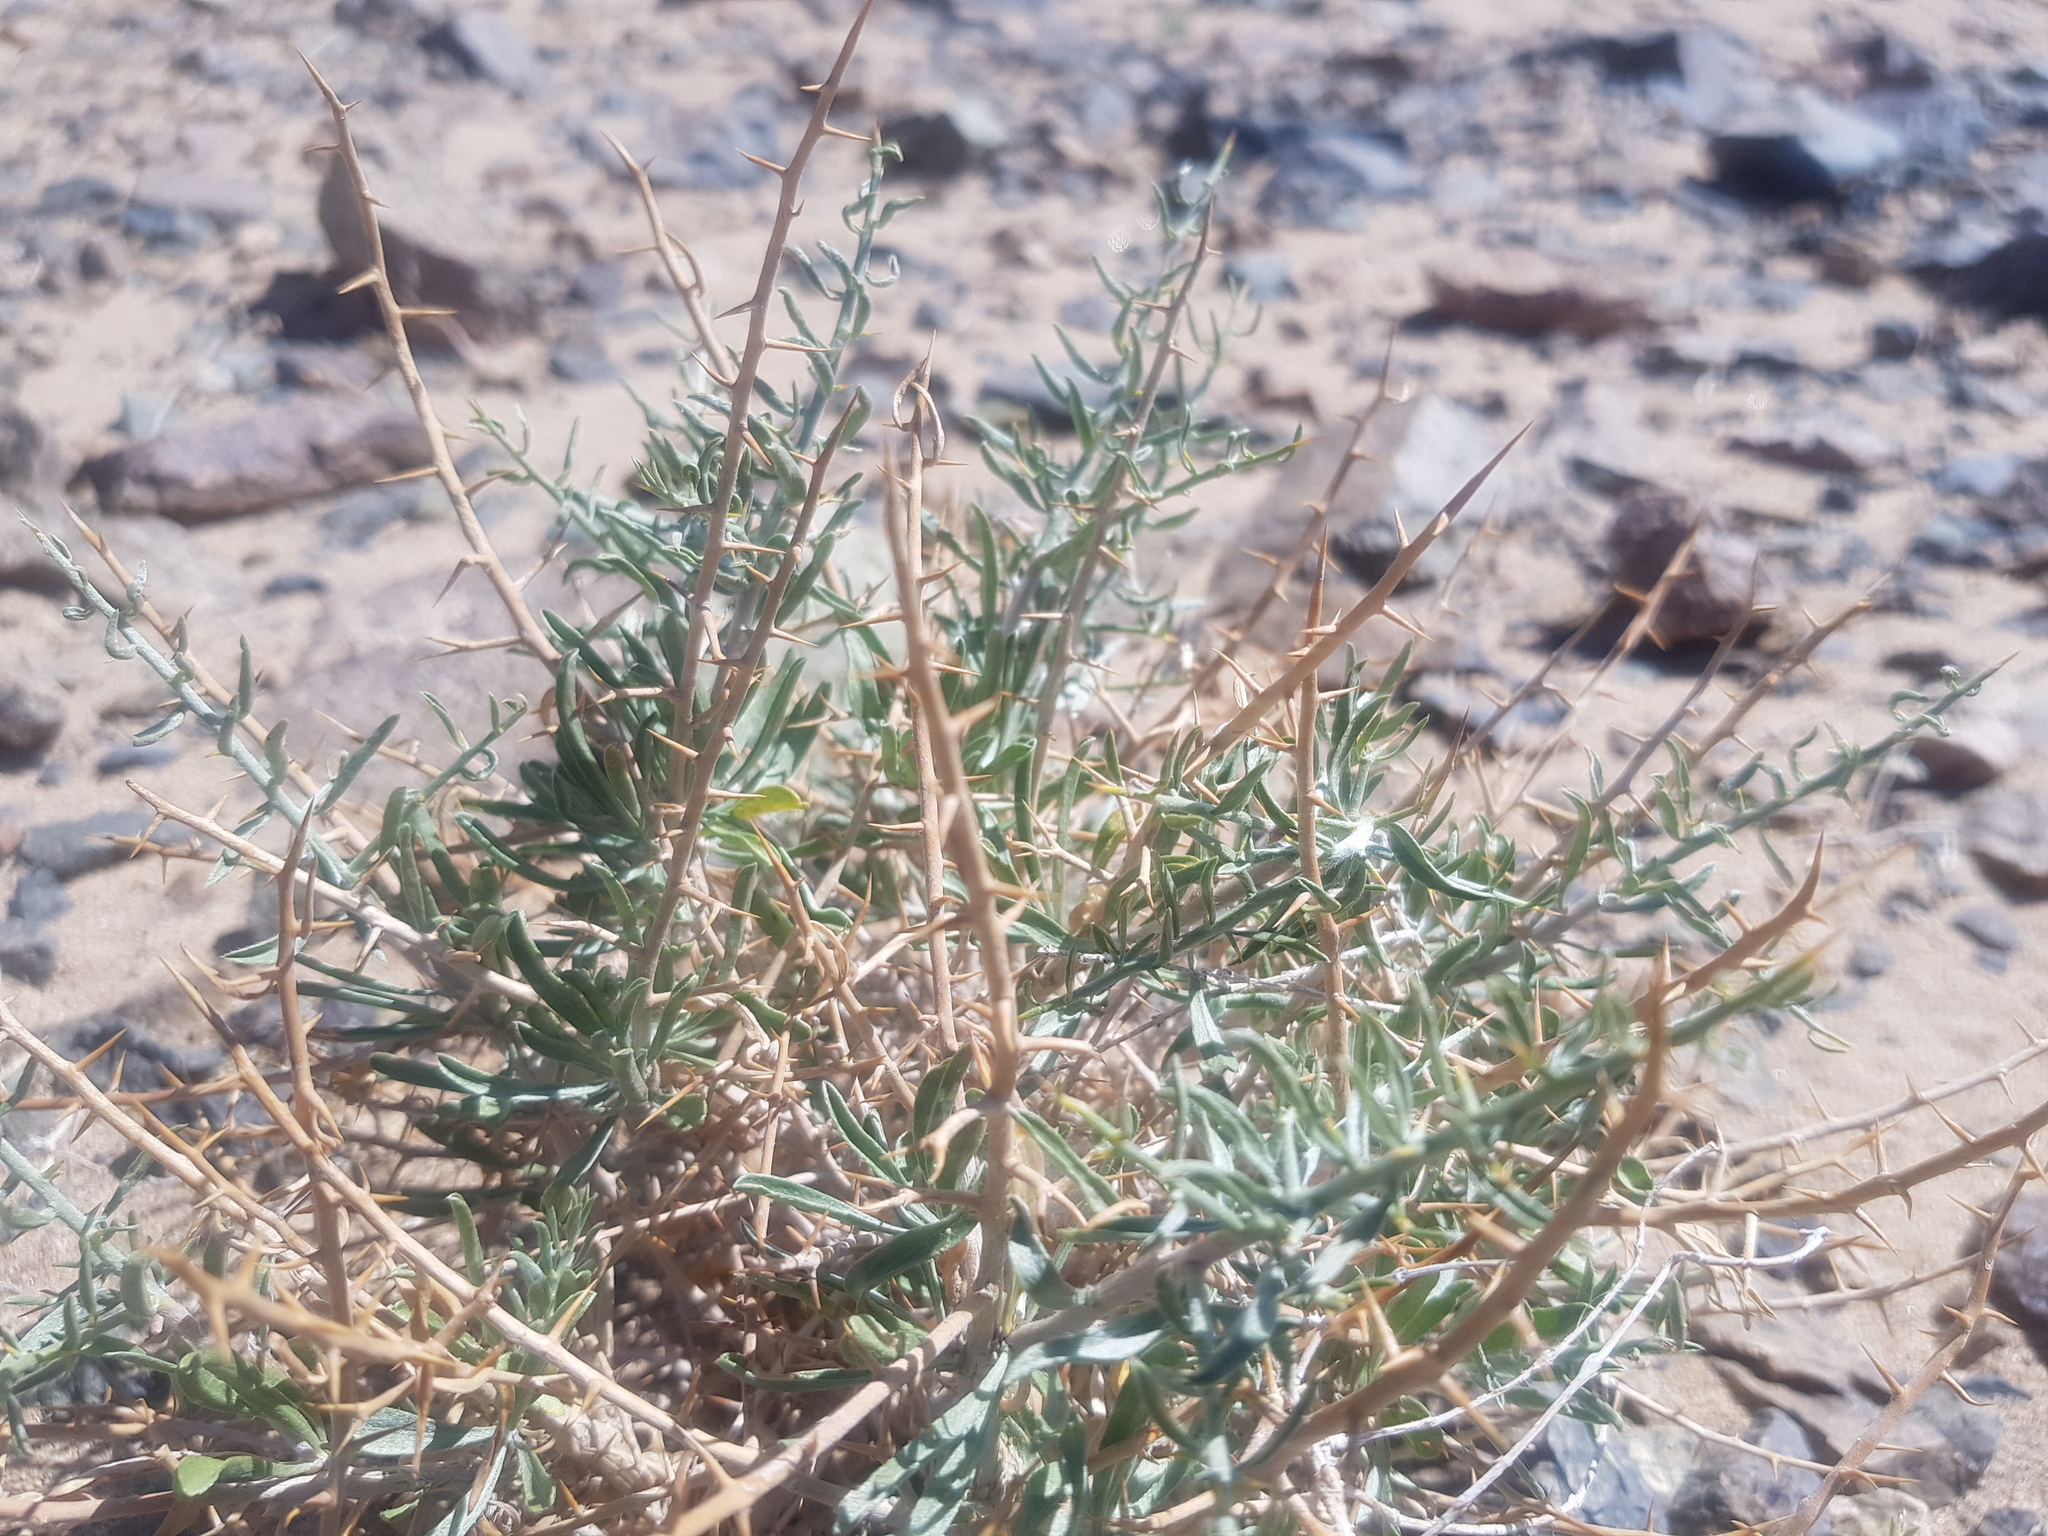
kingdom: Plantae
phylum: Tracheophyta
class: Magnoliopsida
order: Solanales
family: Convolvulaceae
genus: Convolvulus
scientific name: Convolvulus gortschakovii
